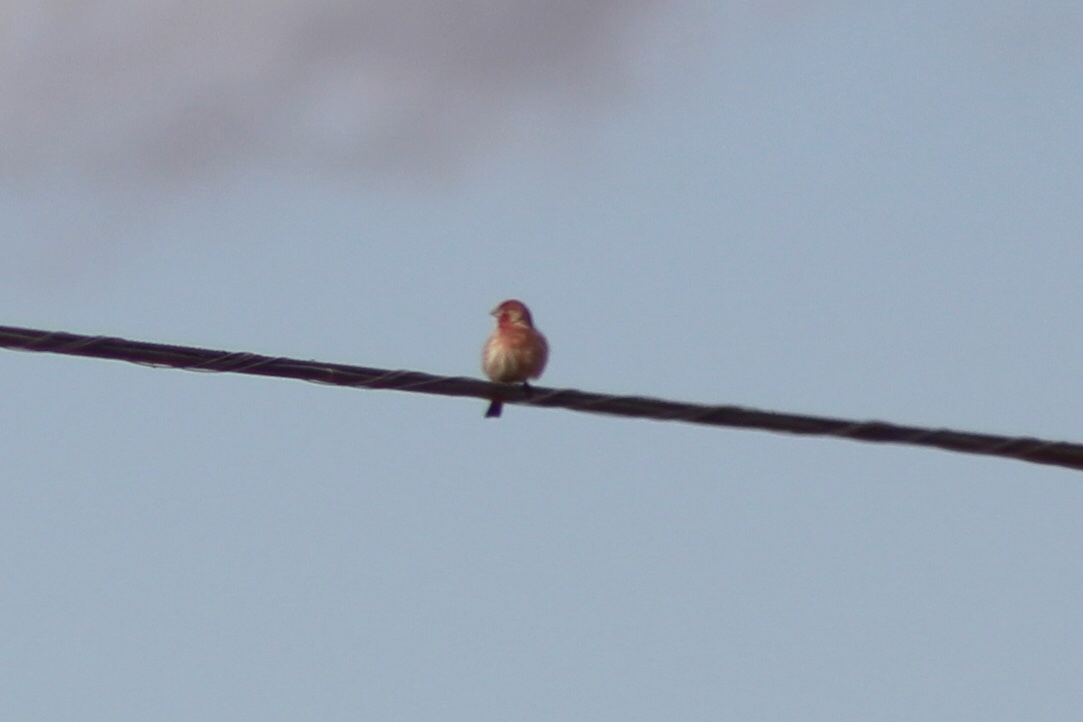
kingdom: Animalia
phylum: Chordata
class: Aves
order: Passeriformes
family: Fringillidae
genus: Haemorhous
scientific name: Haemorhous mexicanus
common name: House finch
